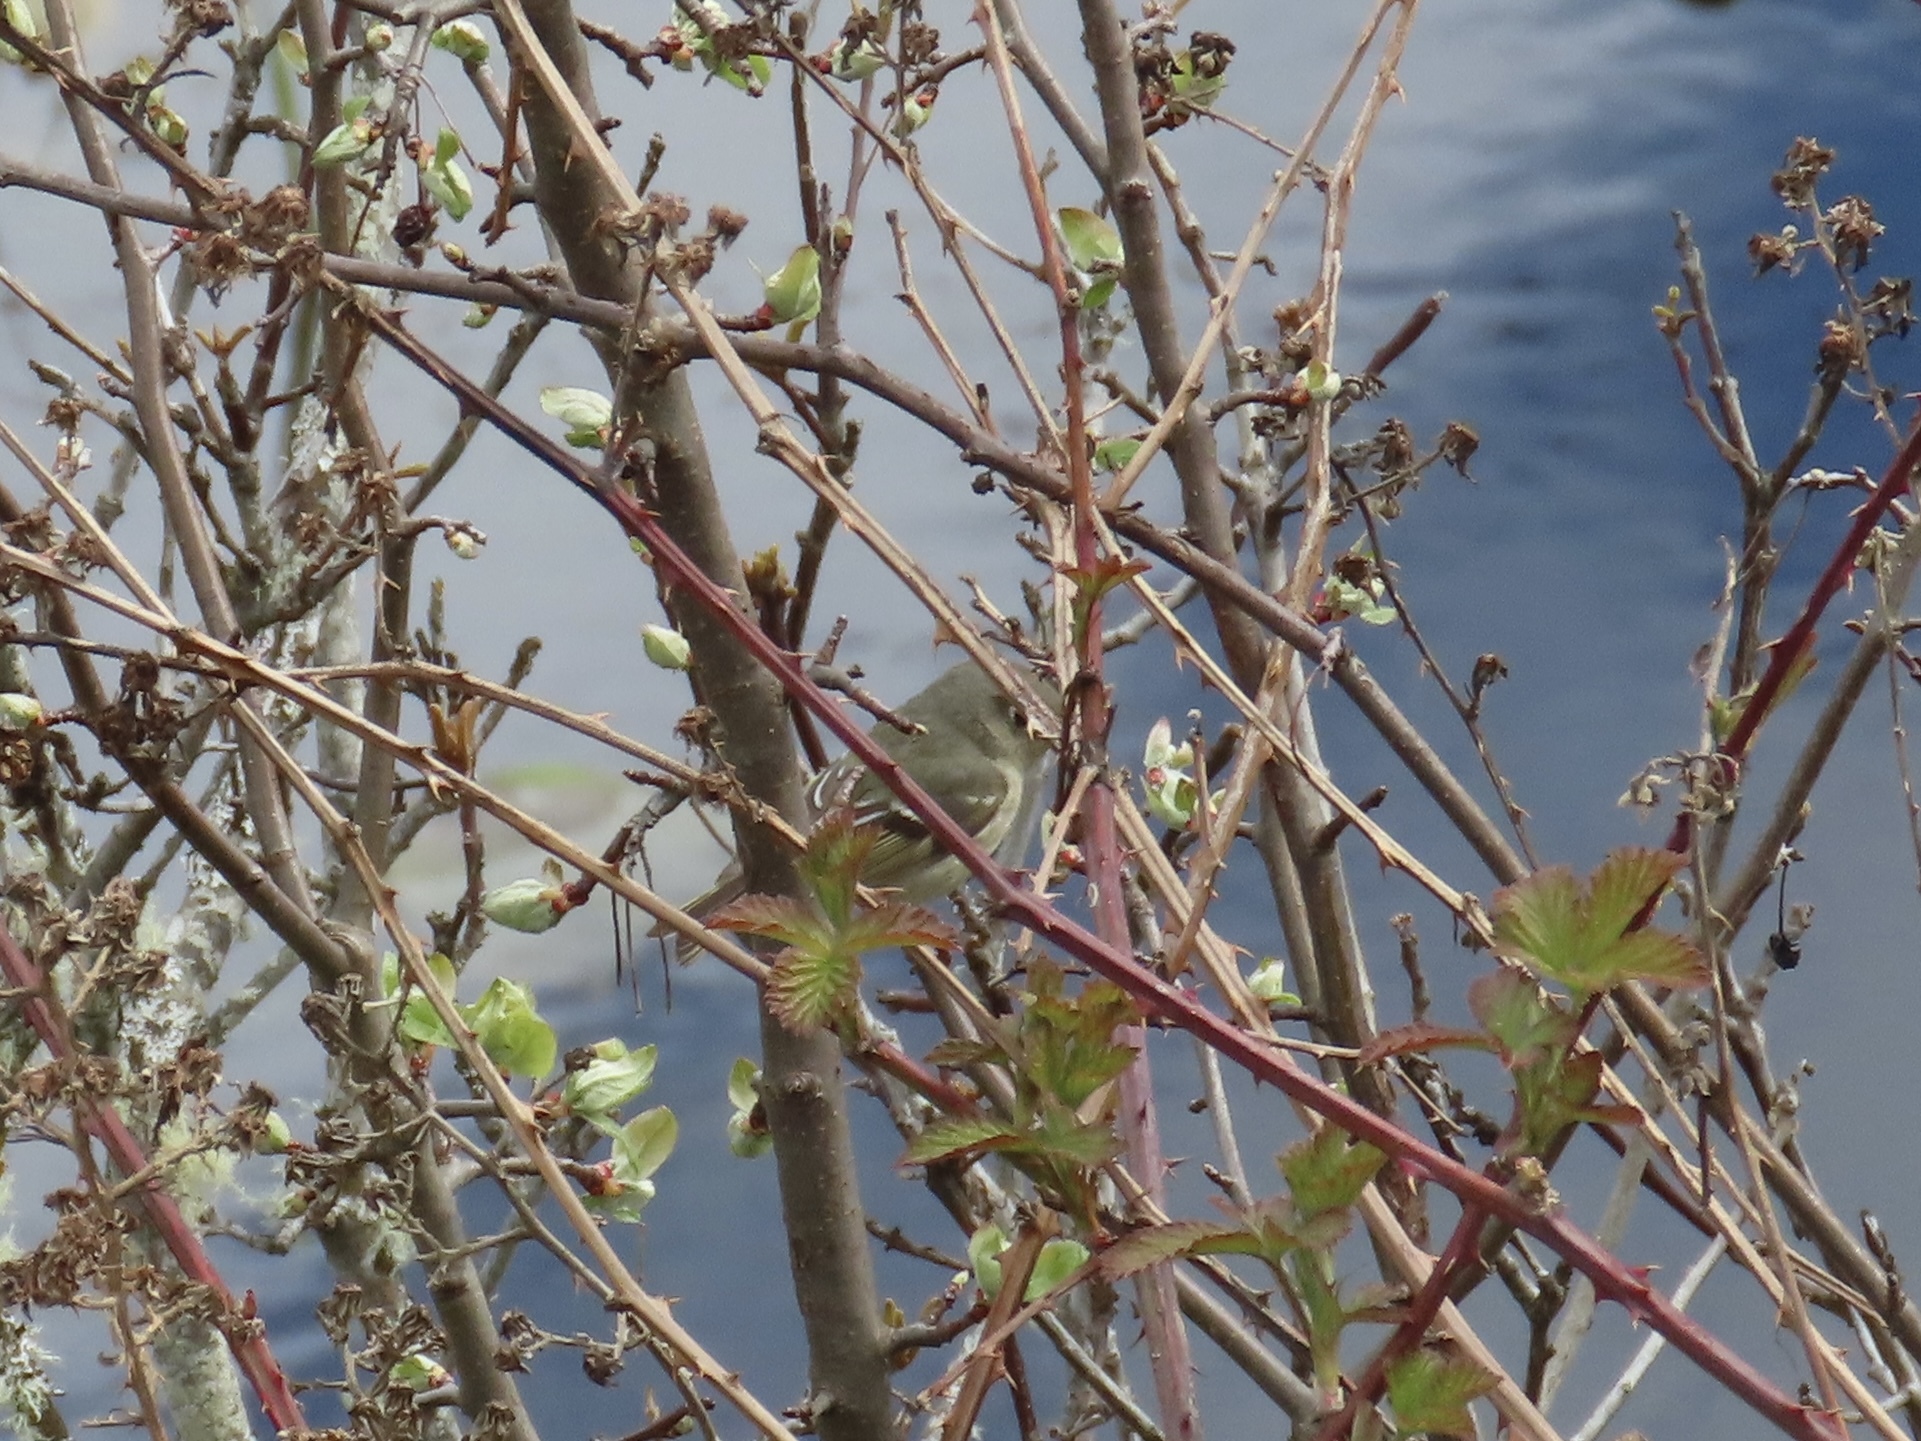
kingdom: Animalia
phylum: Chordata
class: Aves
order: Passeriformes
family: Regulidae
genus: Regulus
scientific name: Regulus calendula
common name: Ruby-crowned kinglet
